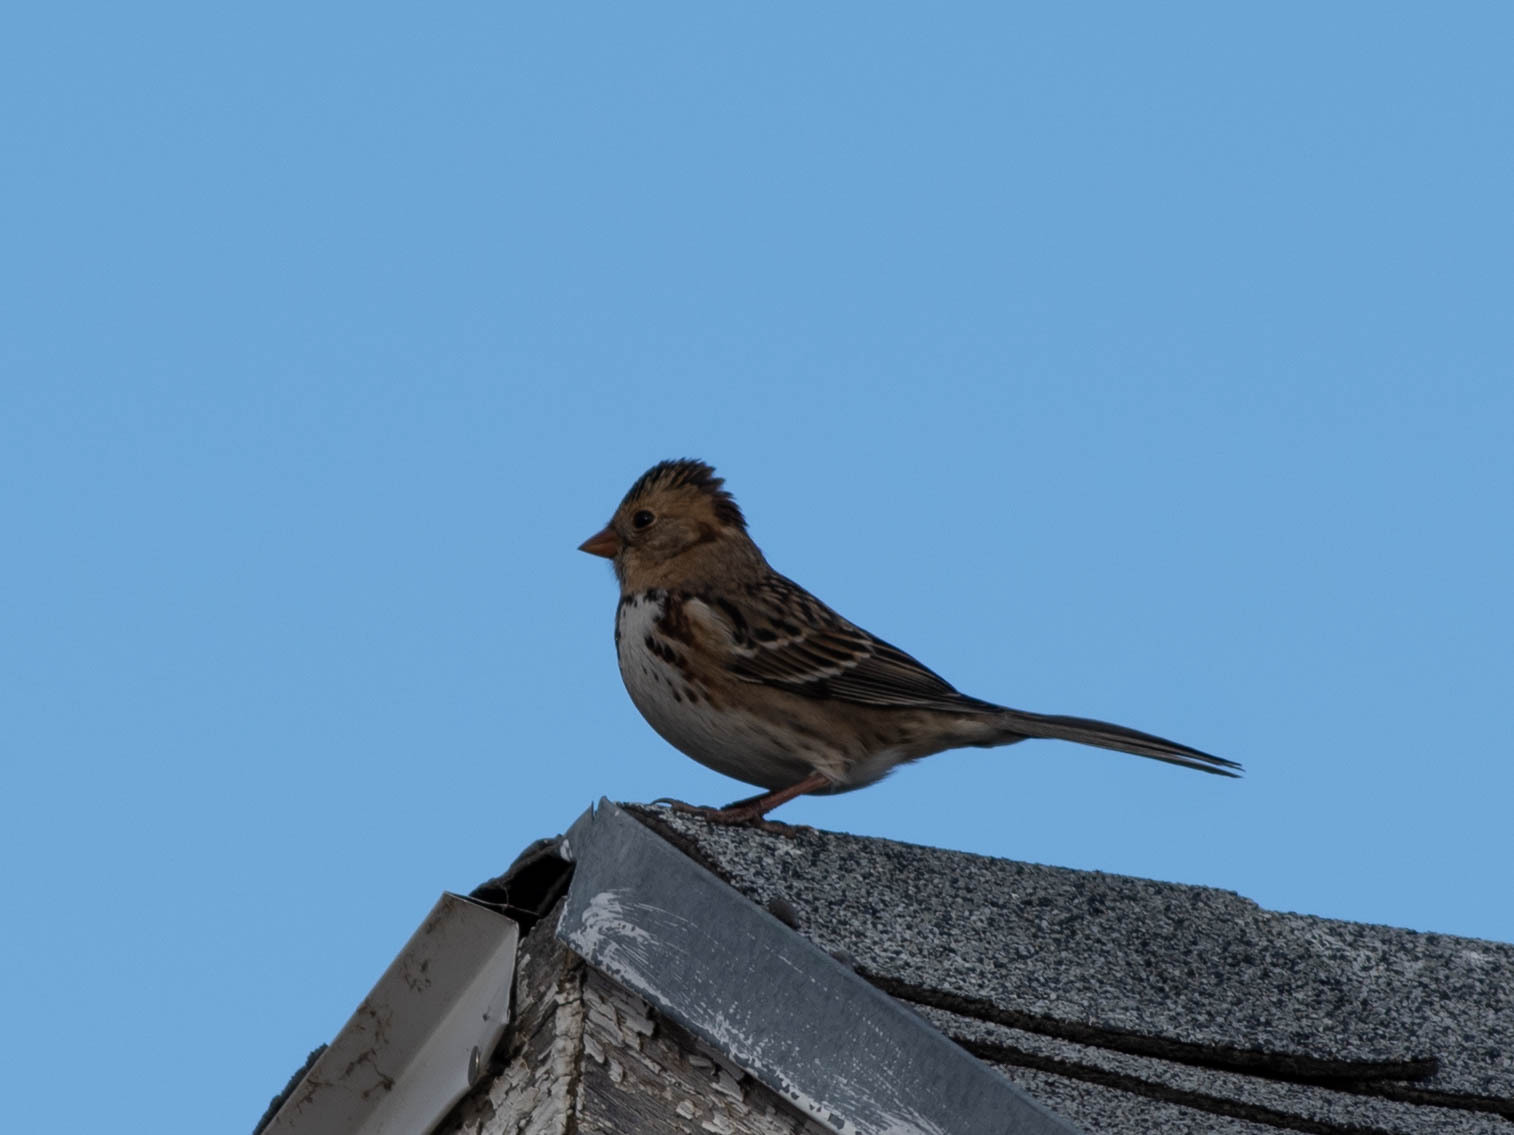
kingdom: Animalia
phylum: Chordata
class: Aves
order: Passeriformes
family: Passerellidae
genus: Zonotrichia
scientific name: Zonotrichia querula
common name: Harris's sparrow
